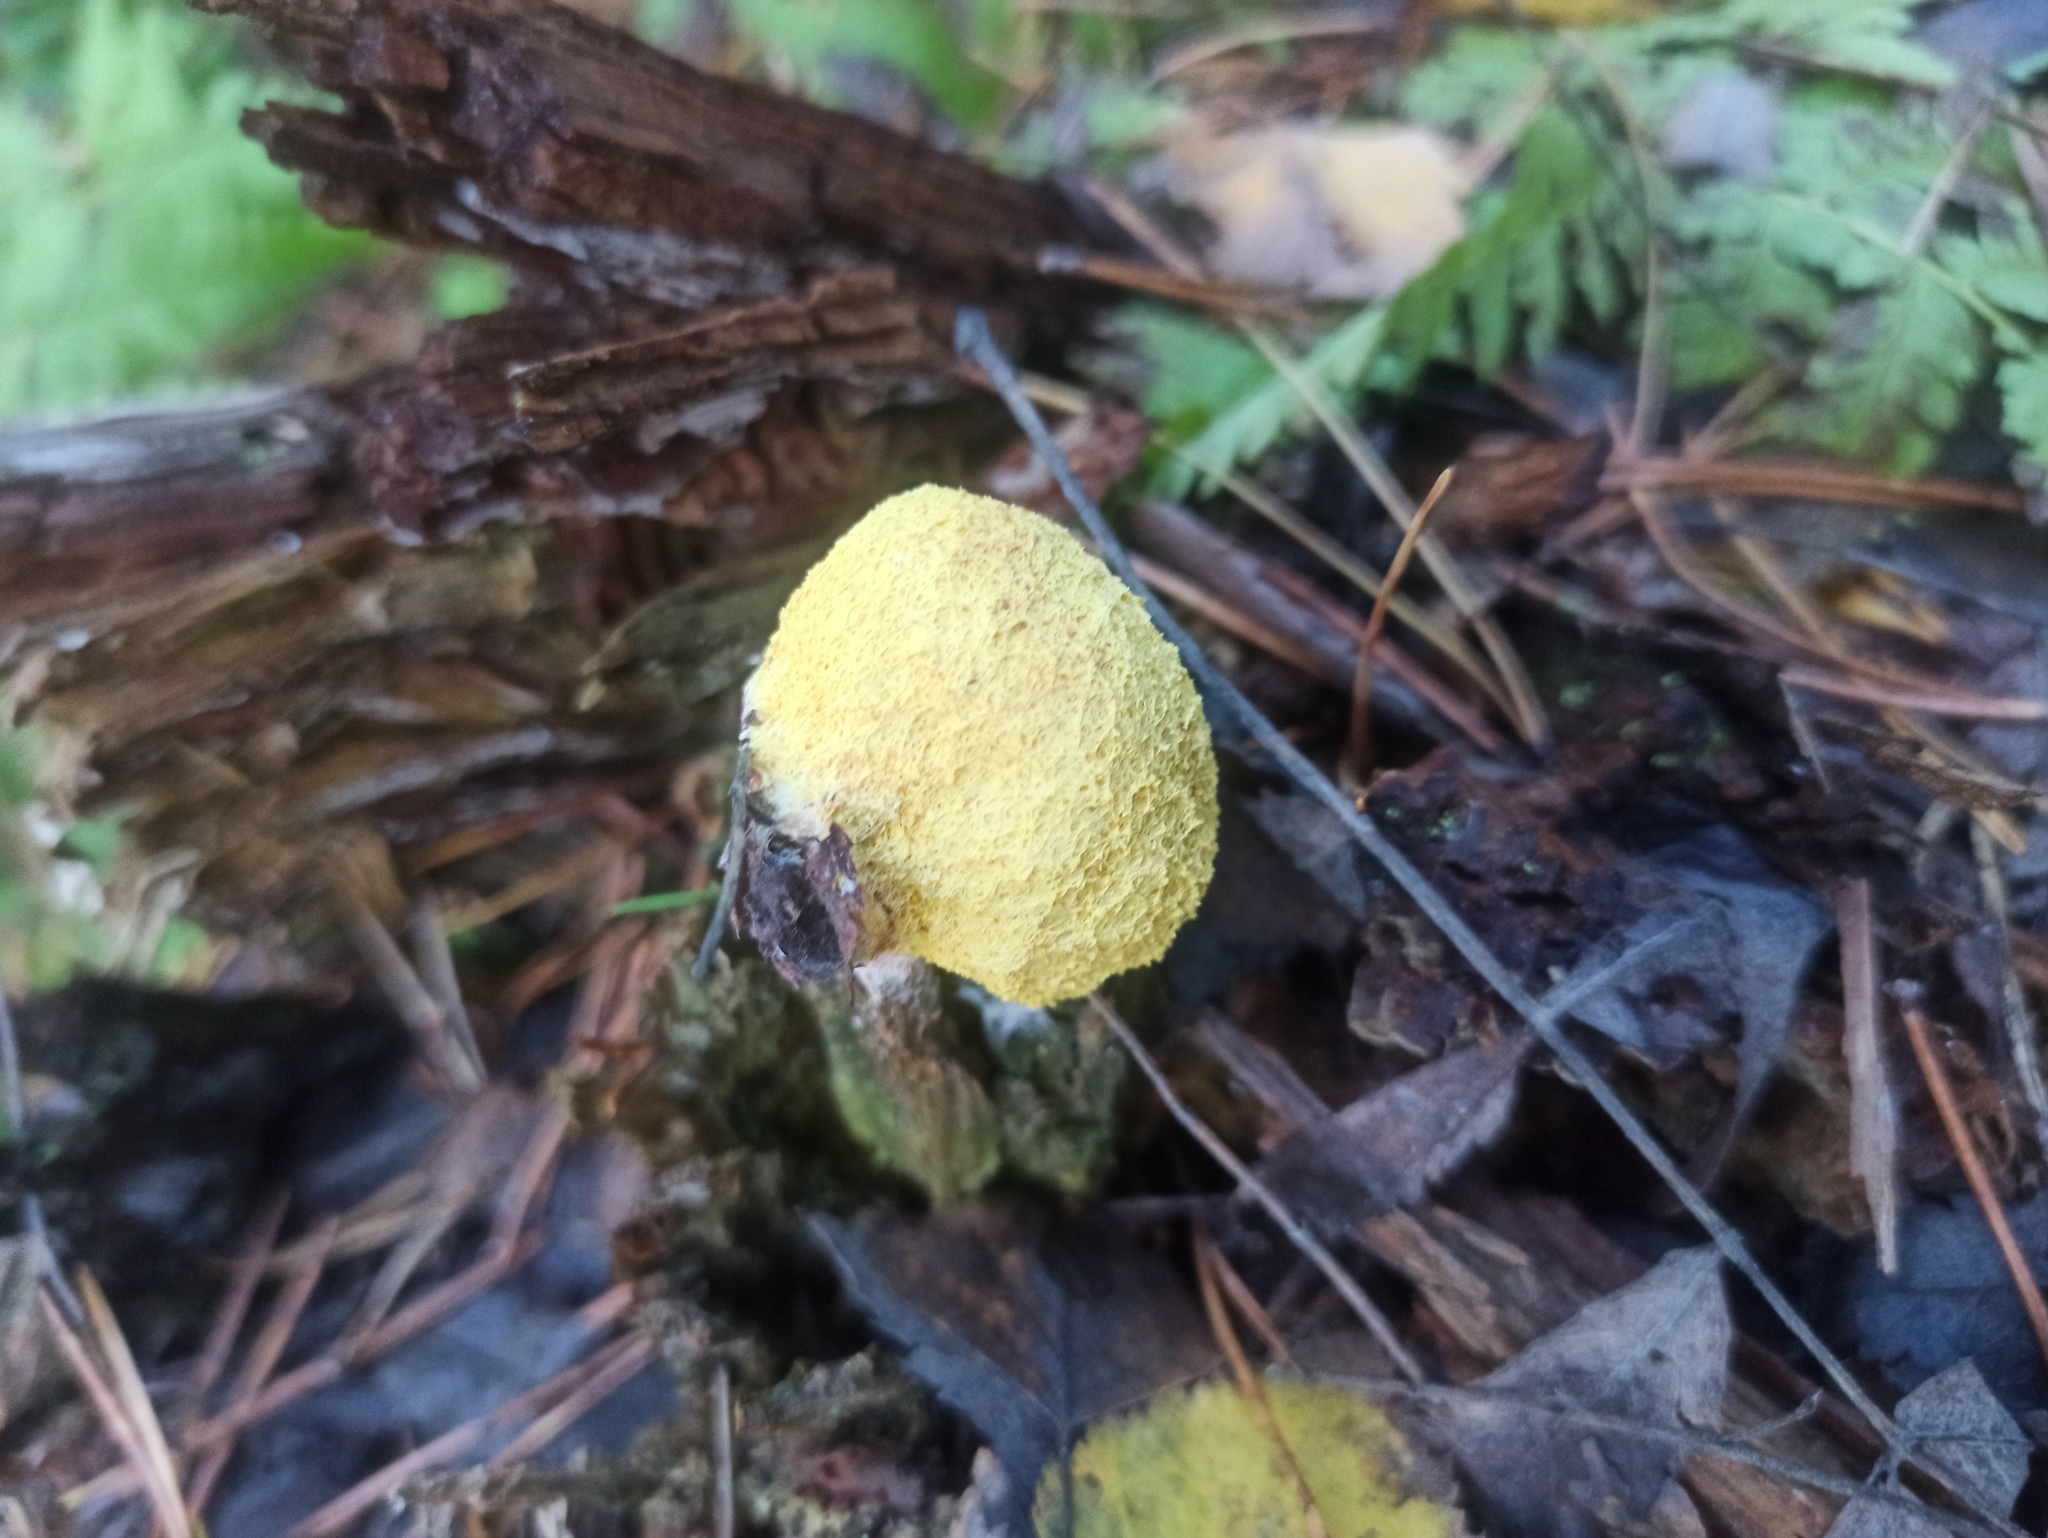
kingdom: Protozoa
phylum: Mycetozoa
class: Myxomycetes
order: Physarales
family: Physaraceae
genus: Fuligo
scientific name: Fuligo septica
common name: Dog vomit slime mold
